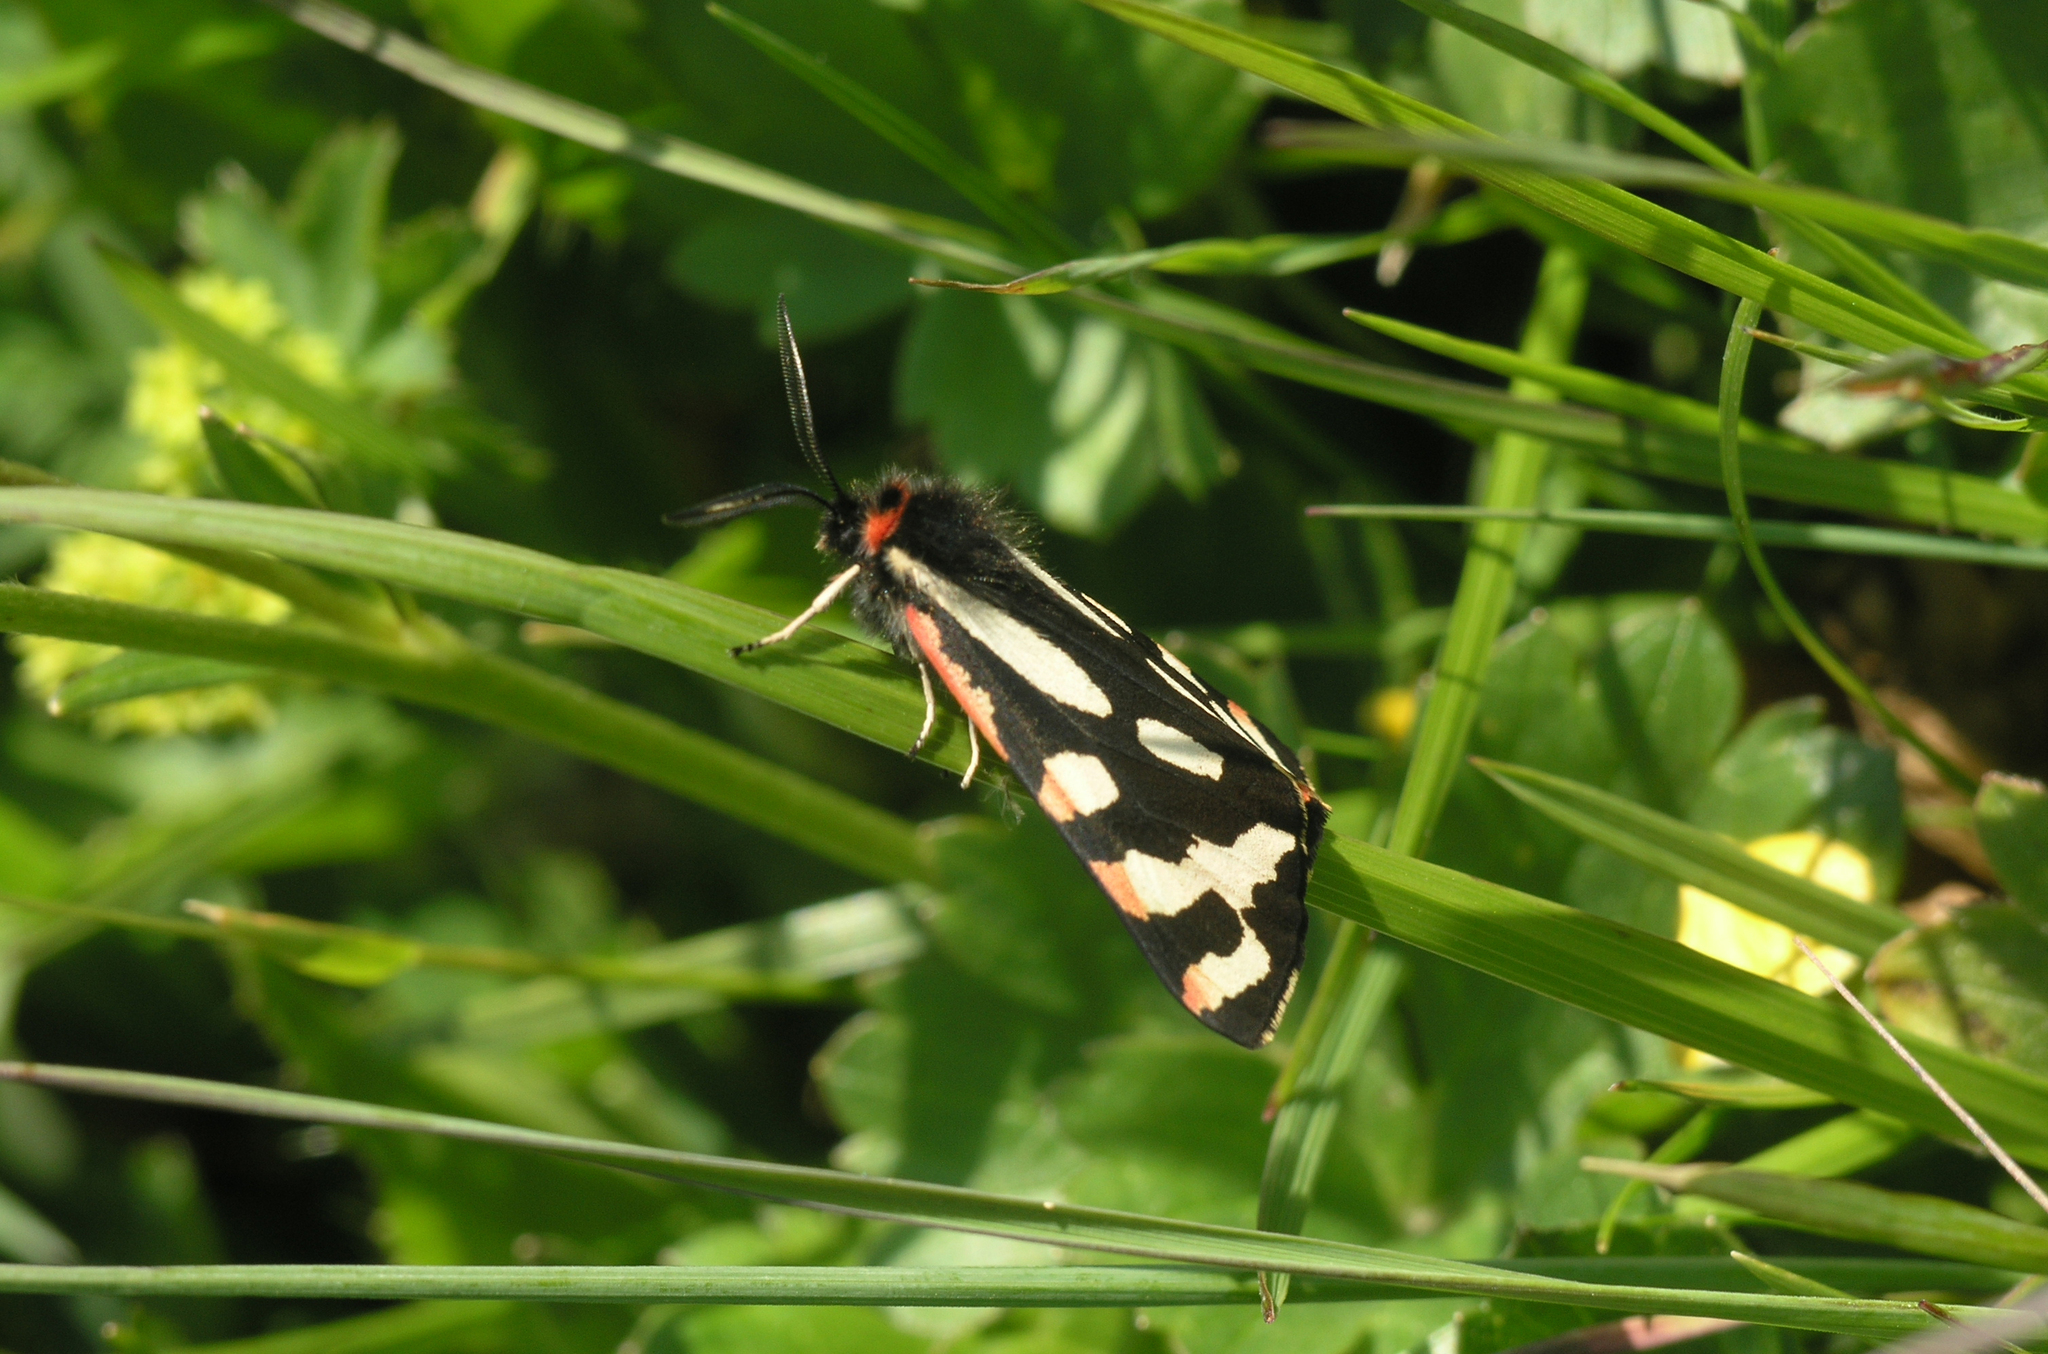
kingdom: Animalia
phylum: Arthropoda
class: Insecta
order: Lepidoptera
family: Erebidae
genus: Parasemia
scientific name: Parasemia plantaginis
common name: Wood tiger
